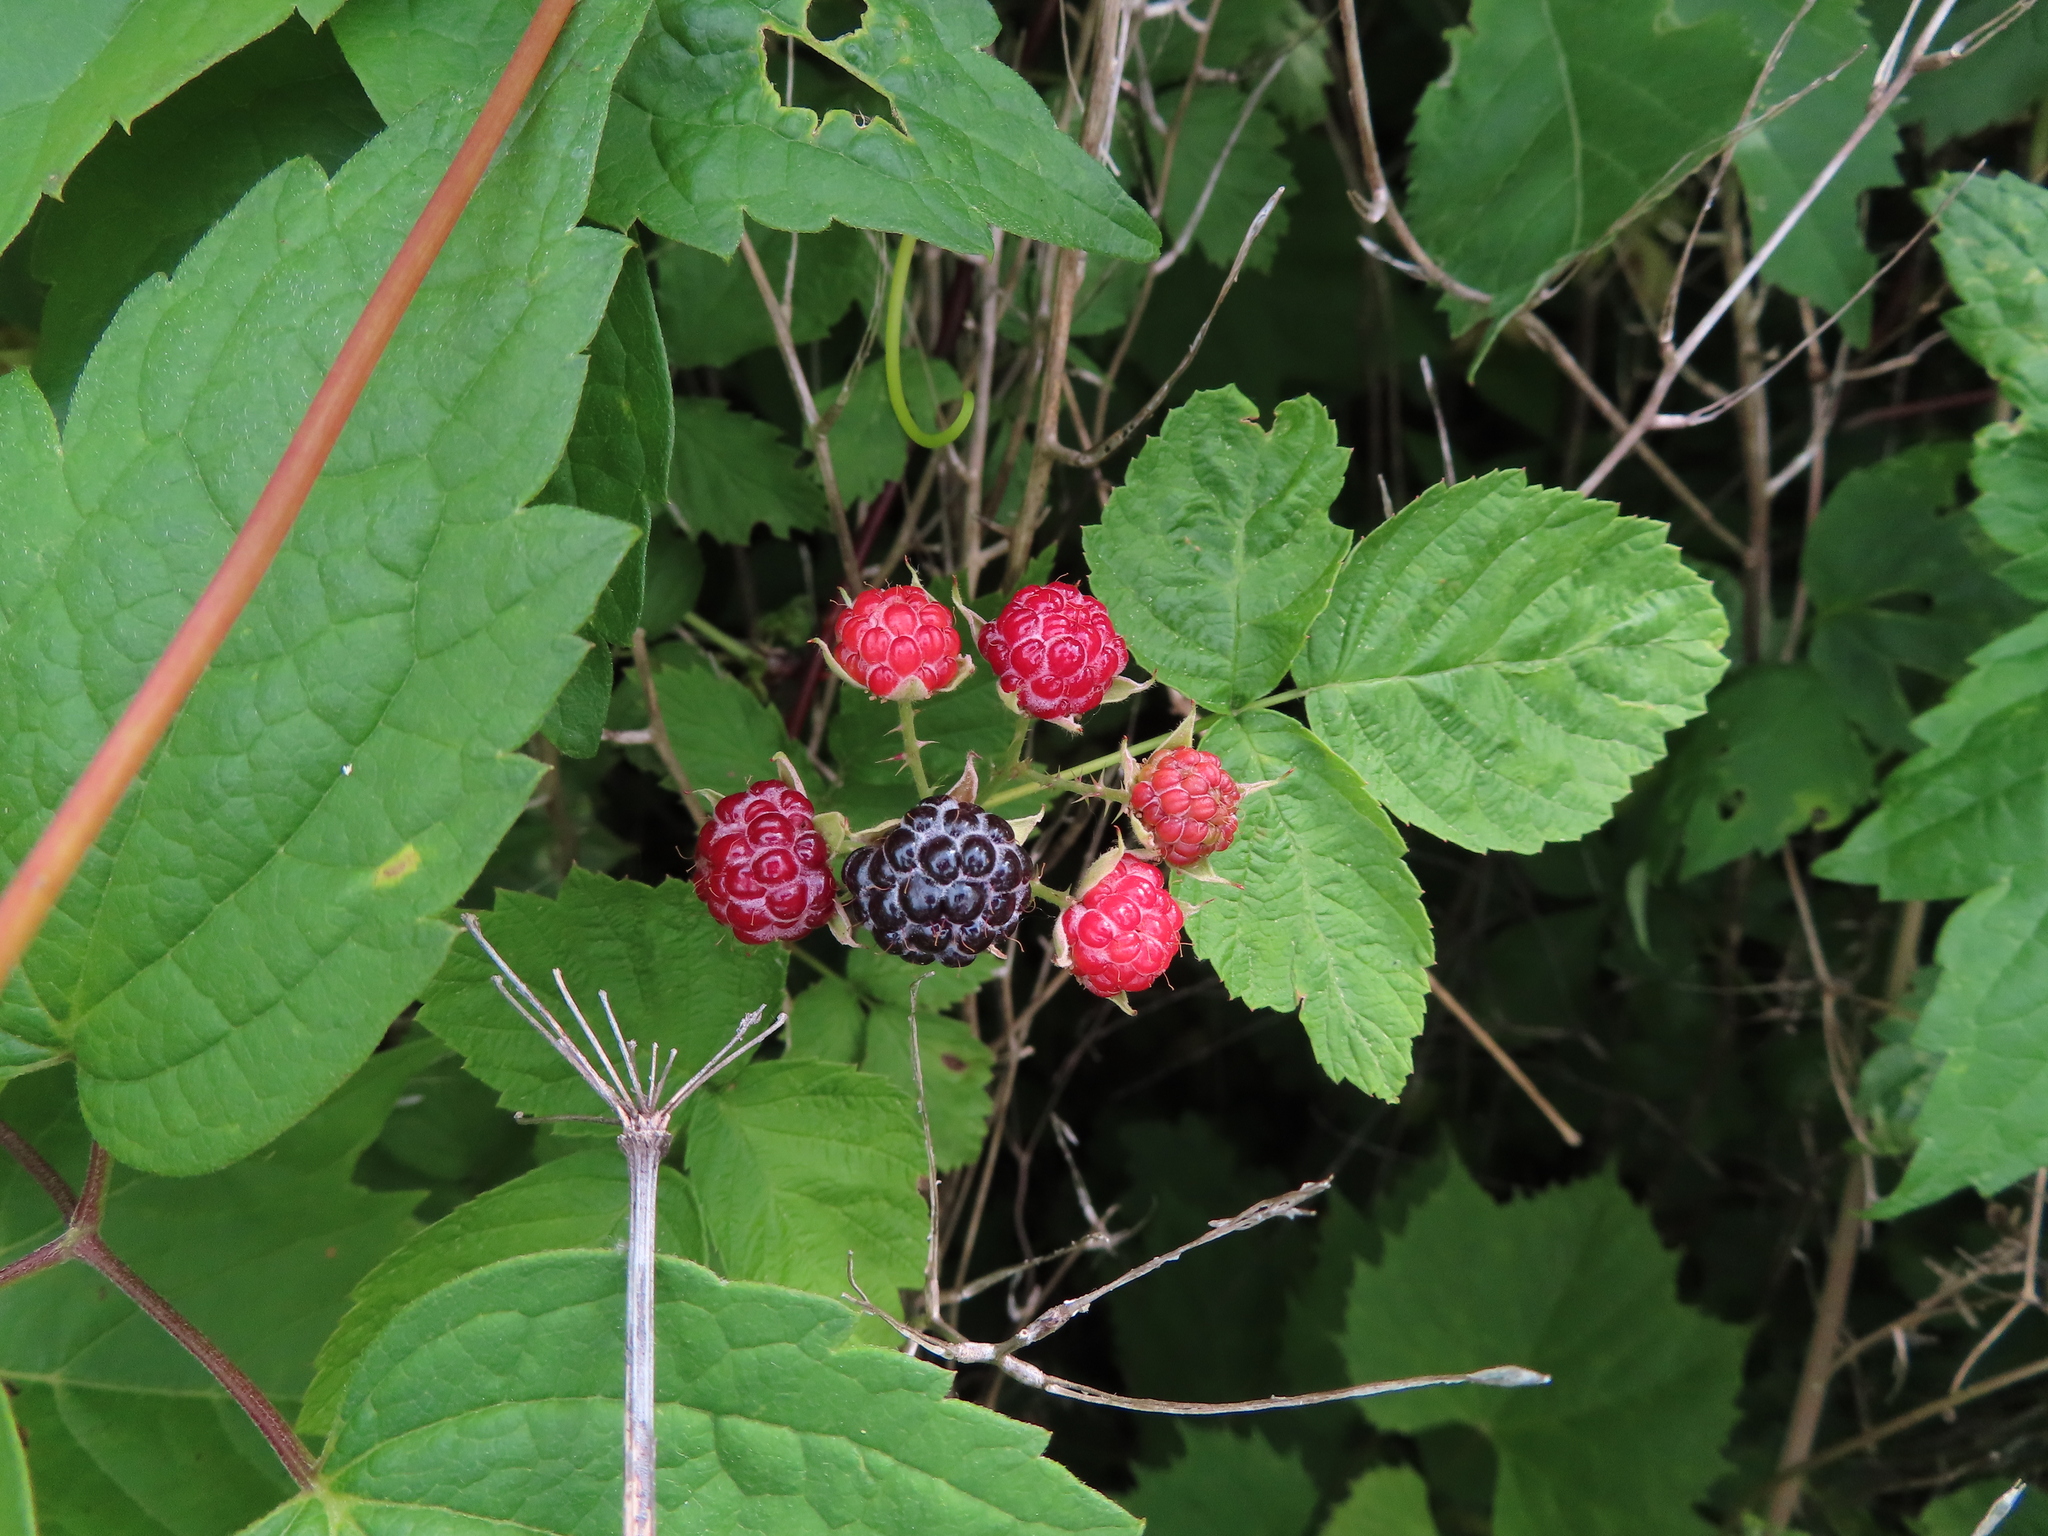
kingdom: Plantae
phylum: Tracheophyta
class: Magnoliopsida
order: Rosales
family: Rosaceae
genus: Rubus
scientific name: Rubus occidentalis
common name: Black raspberry
